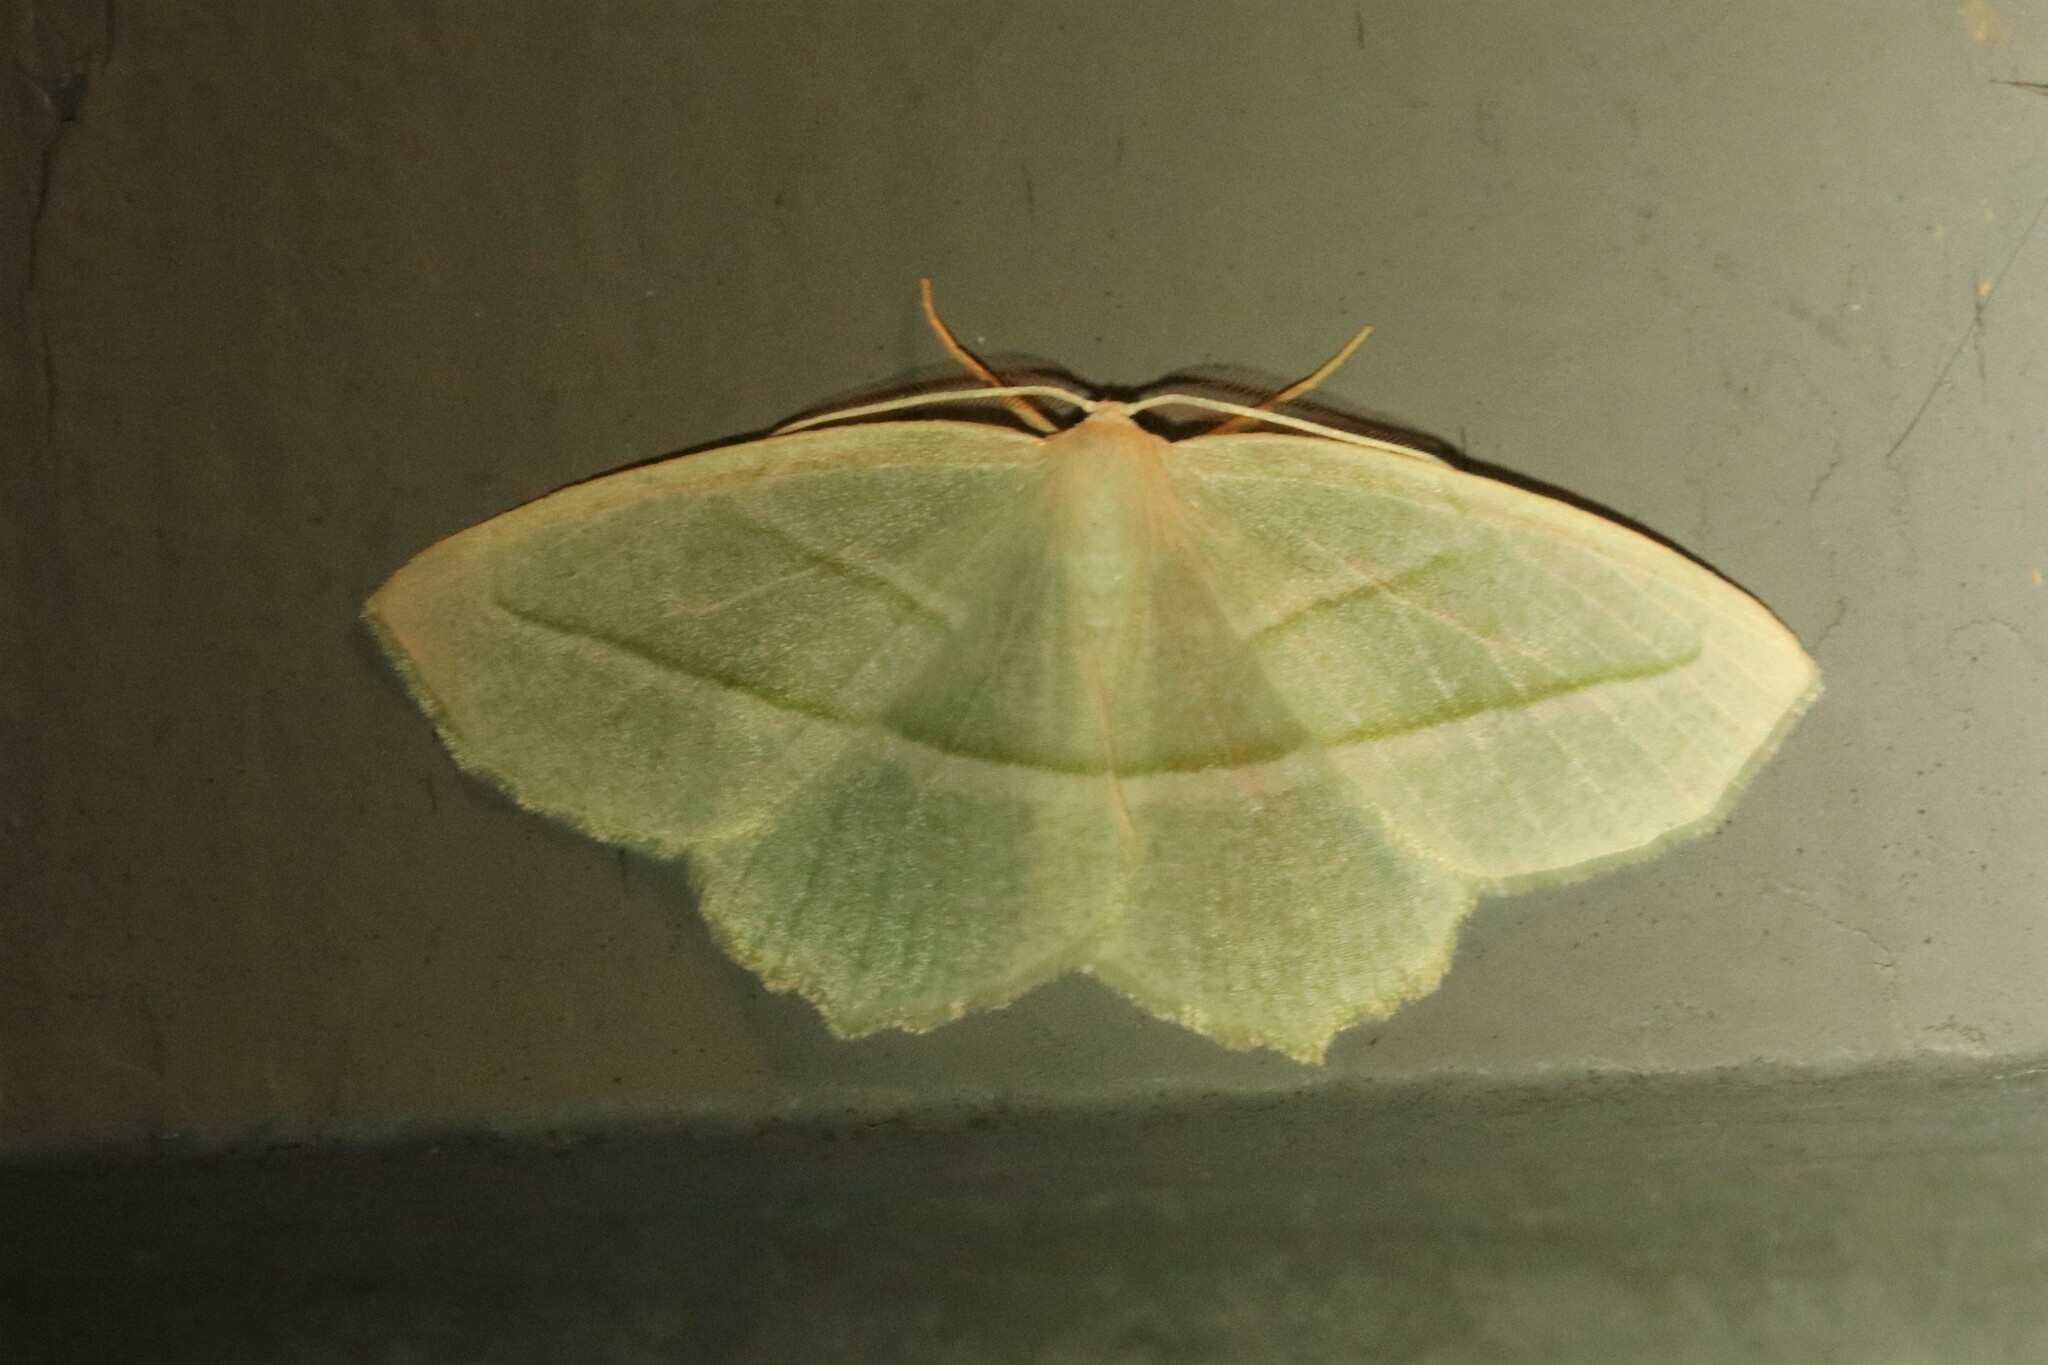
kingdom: Animalia
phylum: Arthropoda
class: Insecta
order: Lepidoptera
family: Geometridae
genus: Campaea
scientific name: Campaea perlata
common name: Fringed looper
